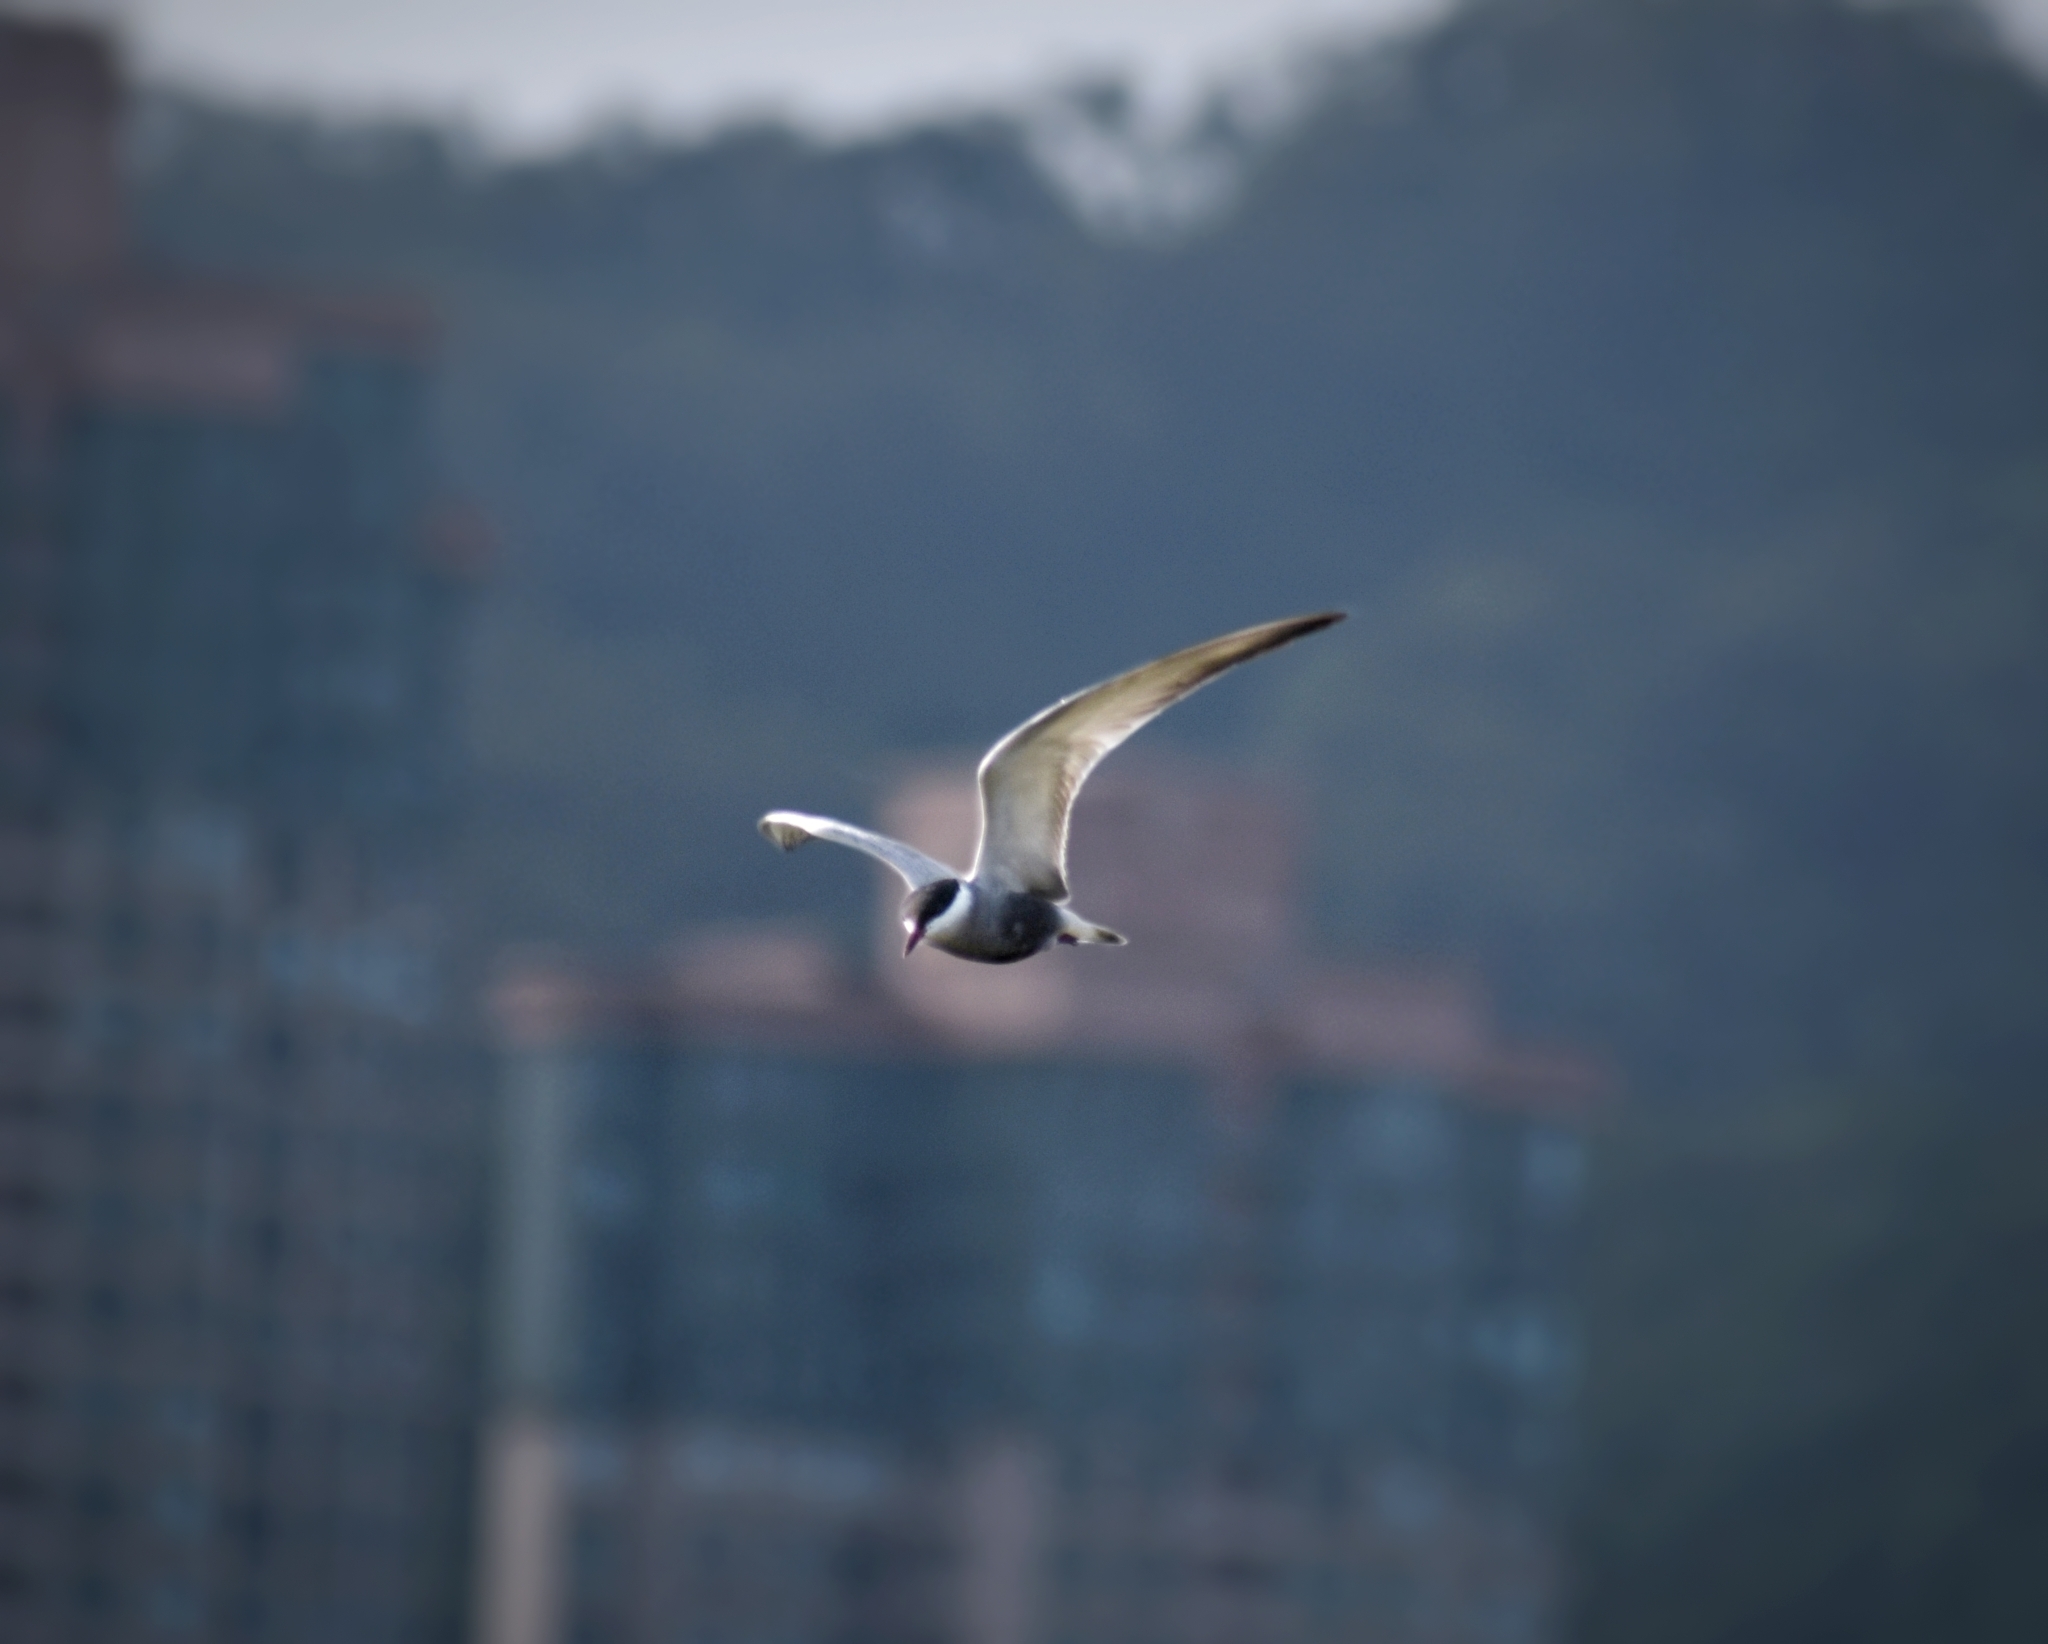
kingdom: Animalia
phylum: Chordata
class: Aves
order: Charadriiformes
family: Laridae
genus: Chlidonias
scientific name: Chlidonias hybrida
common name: Whiskered tern
